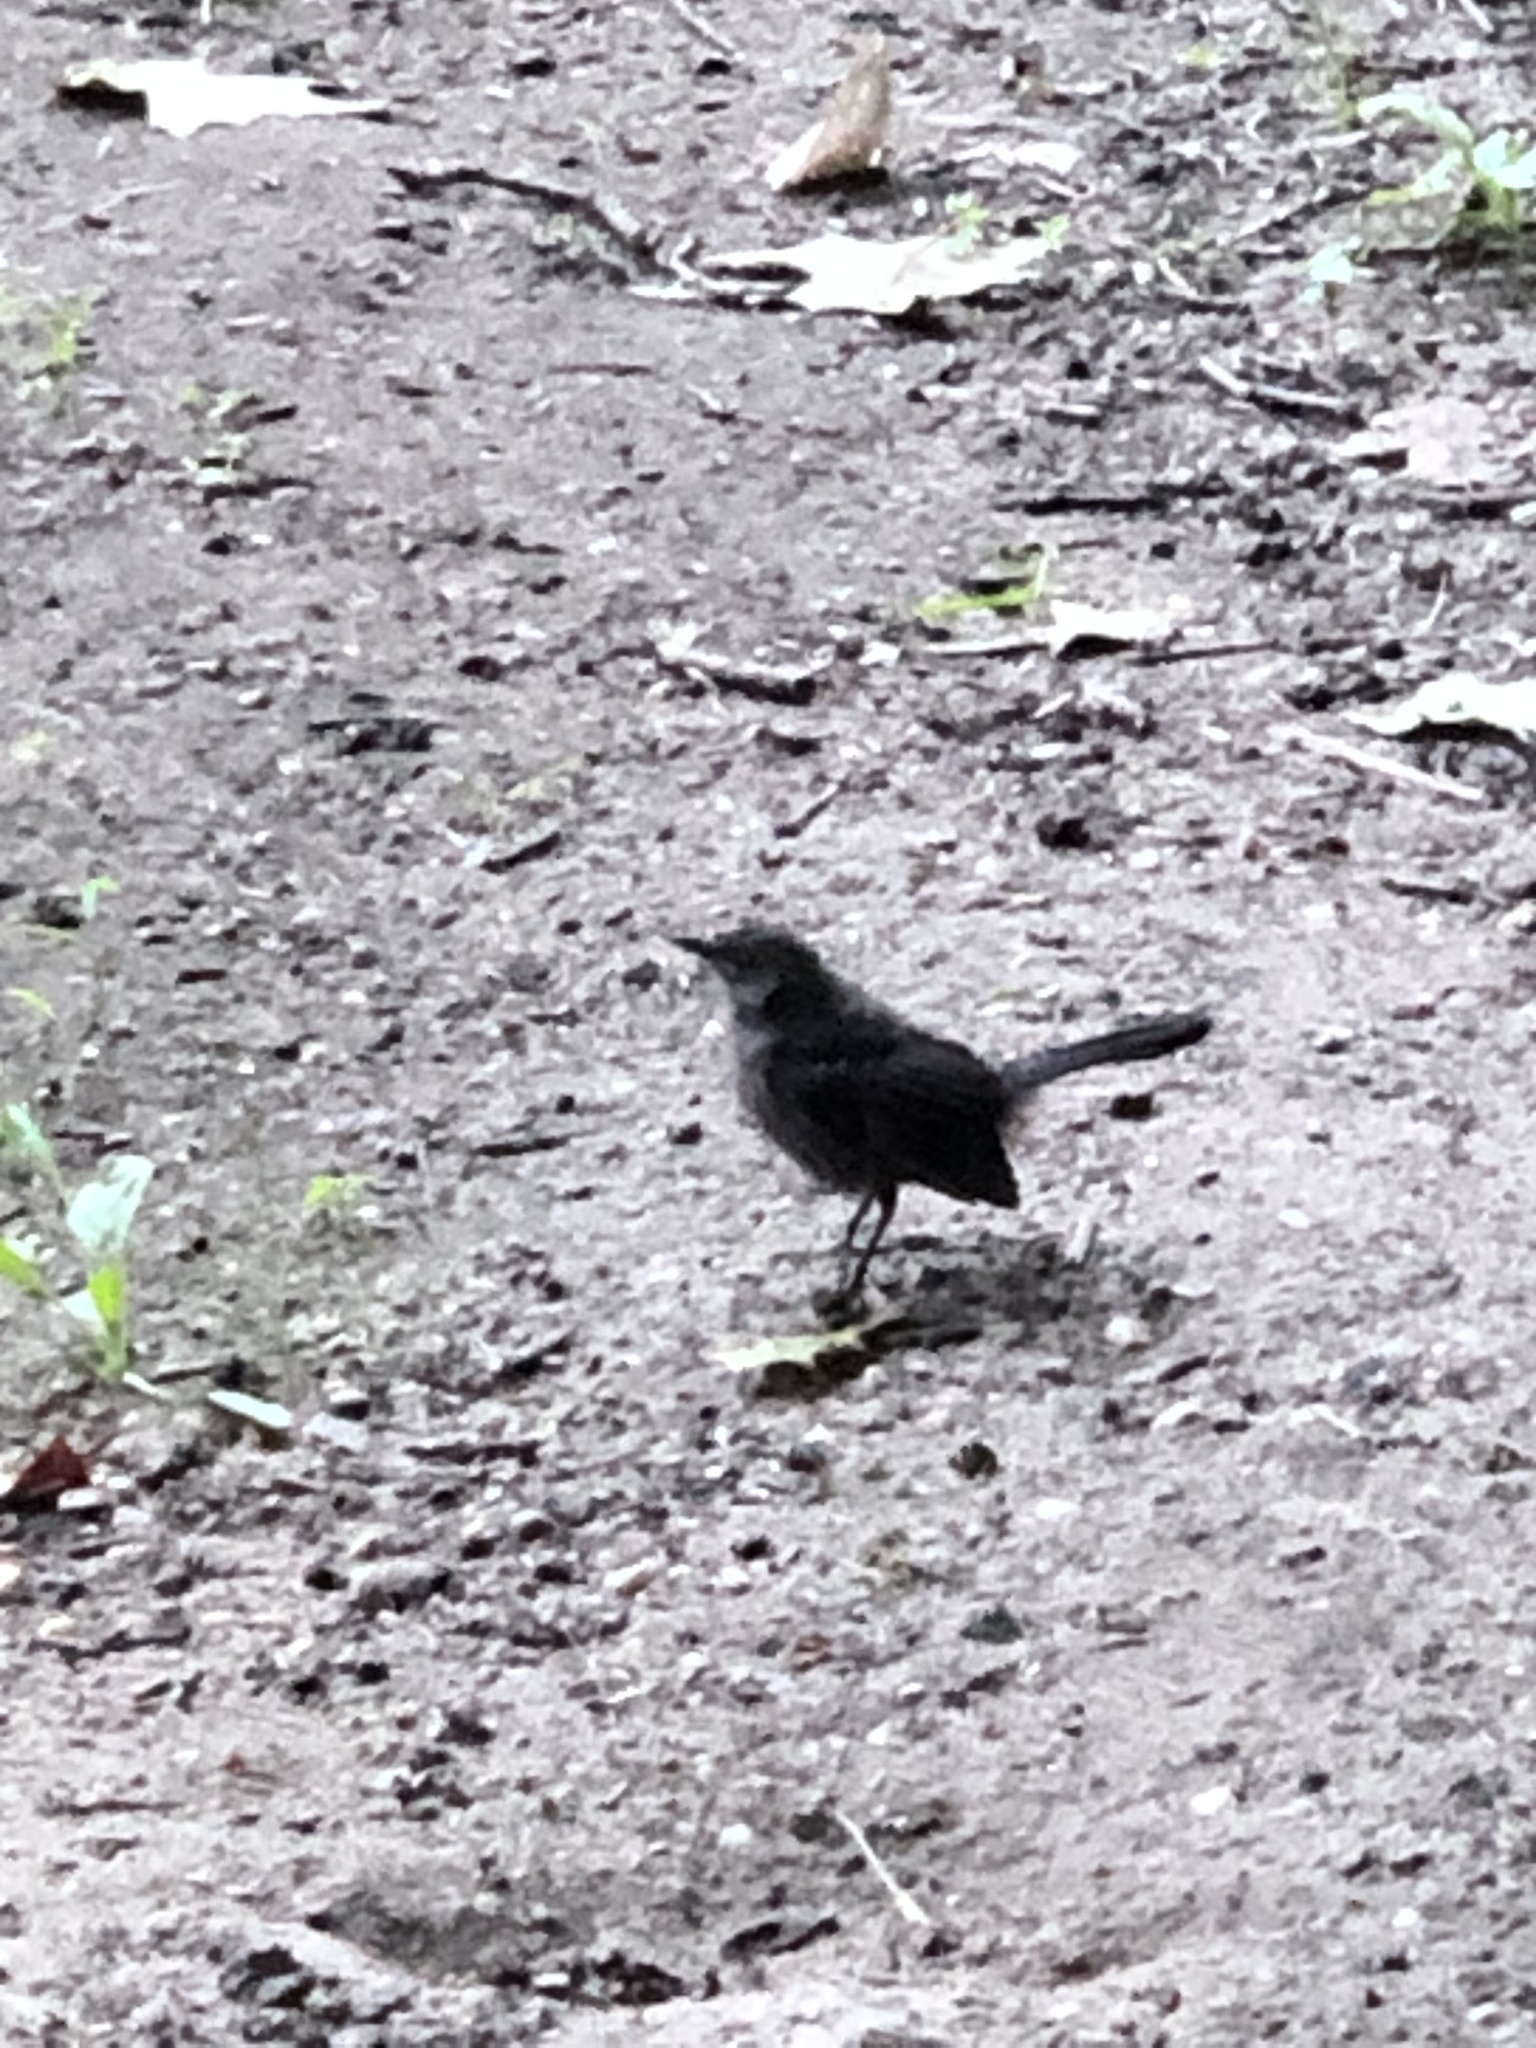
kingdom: Animalia
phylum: Chordata
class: Aves
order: Passeriformes
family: Mimidae
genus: Dumetella
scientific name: Dumetella carolinensis
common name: Gray catbird
